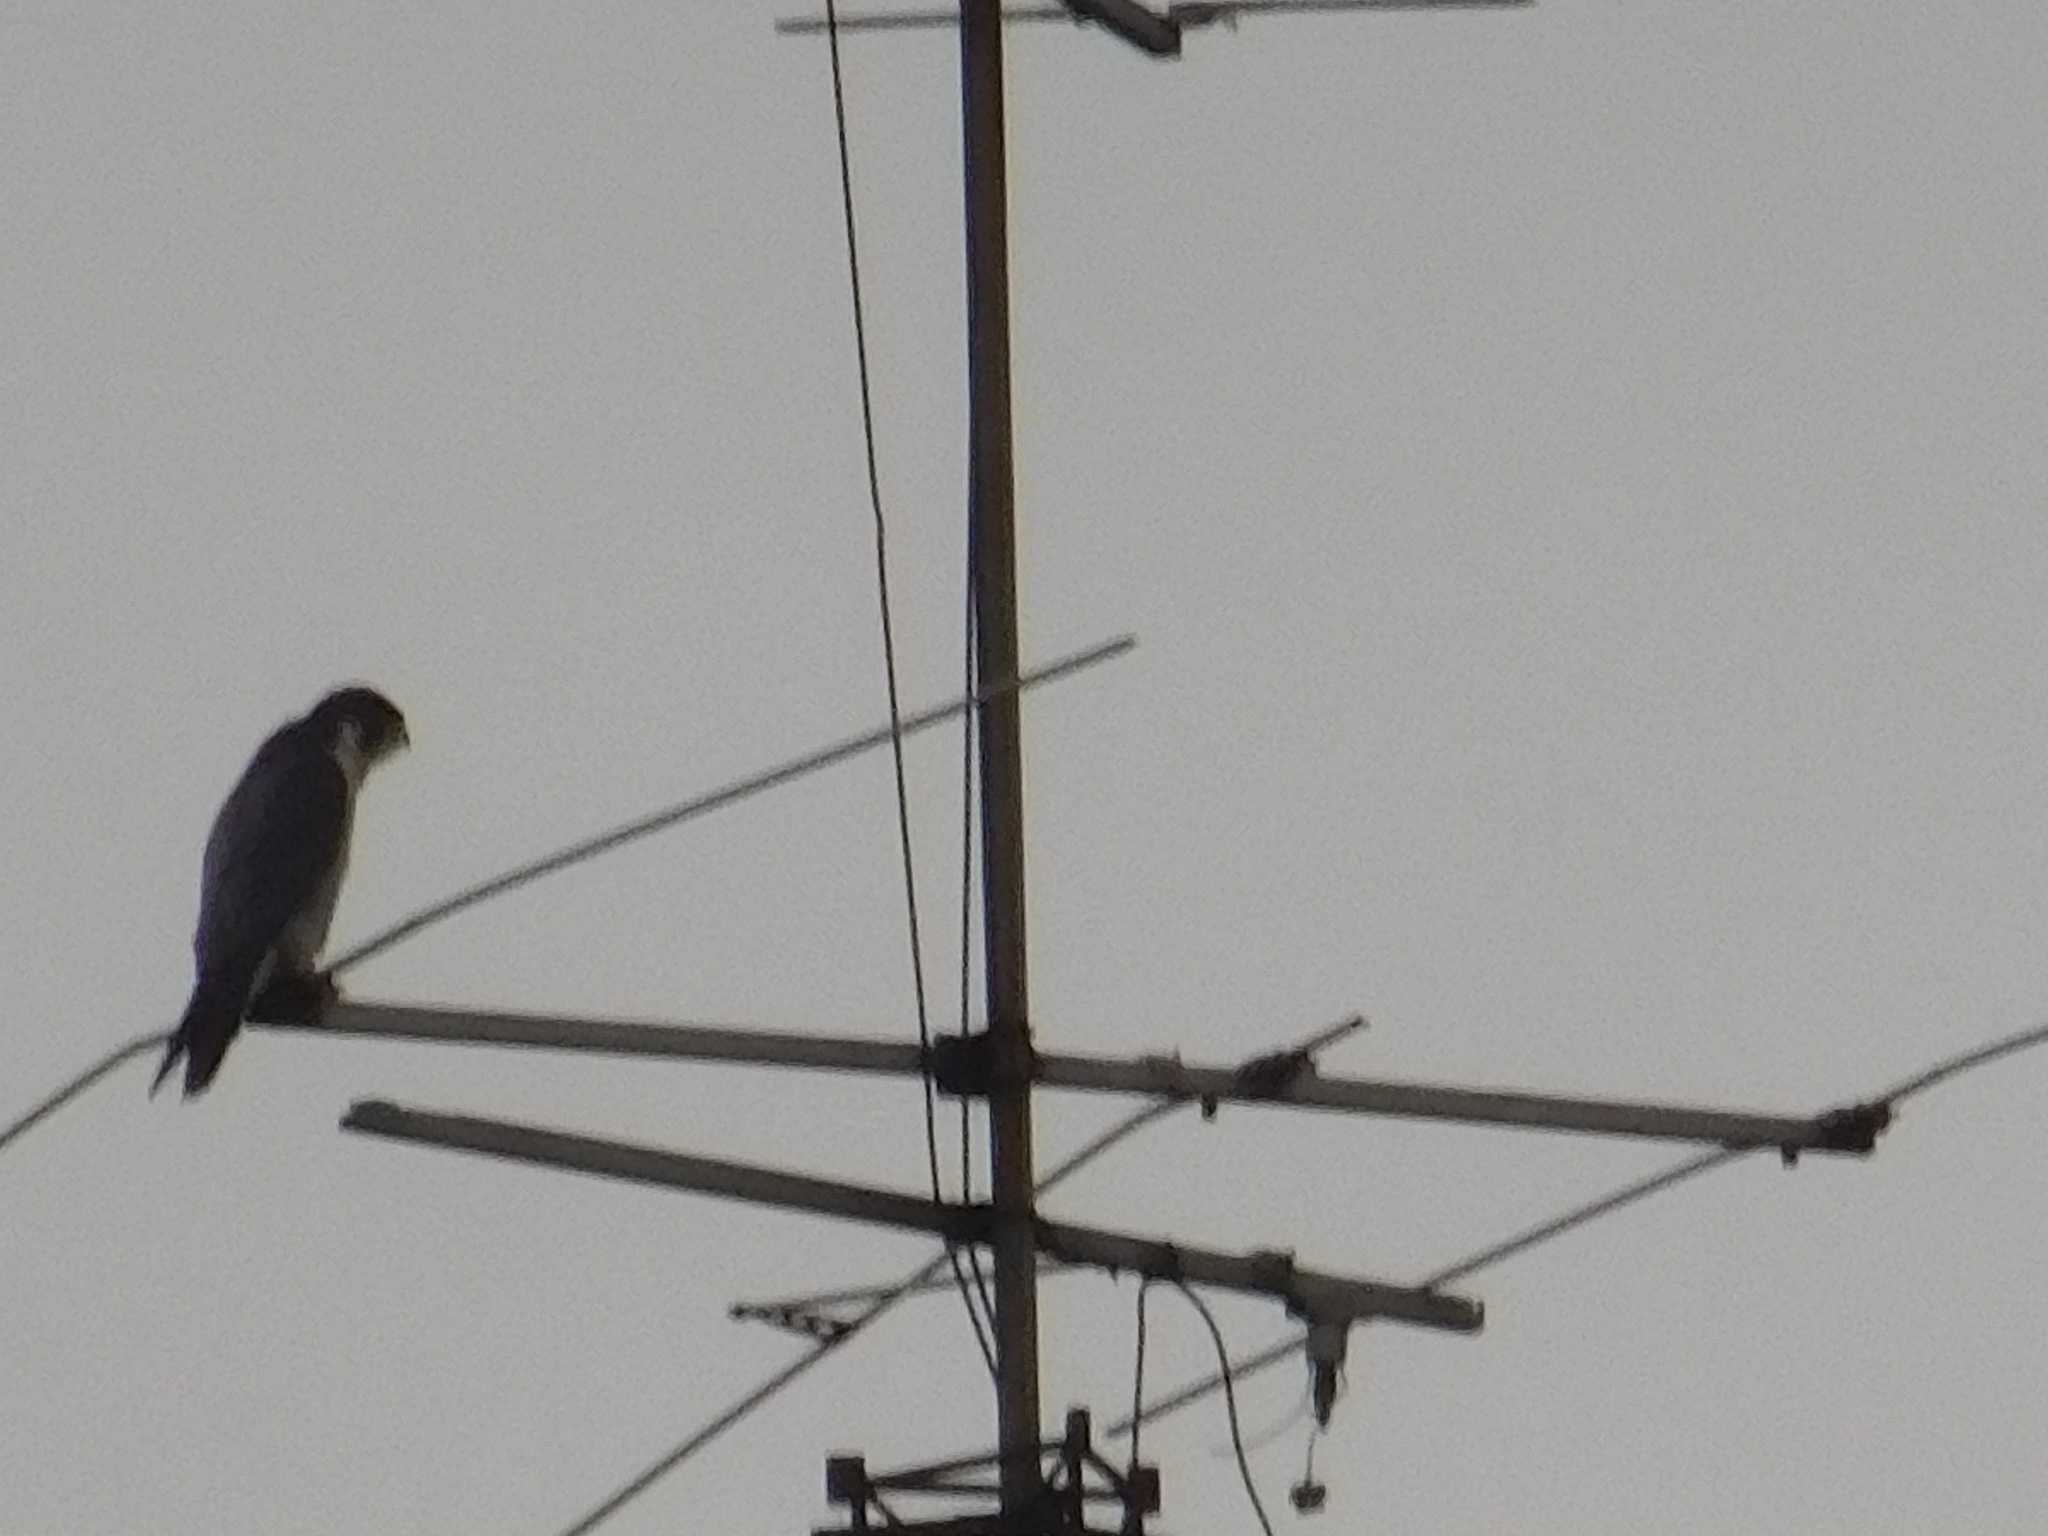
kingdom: Animalia
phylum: Chordata
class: Aves
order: Falconiformes
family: Falconidae
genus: Falco
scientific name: Falco peregrinus
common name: Peregrine falcon
